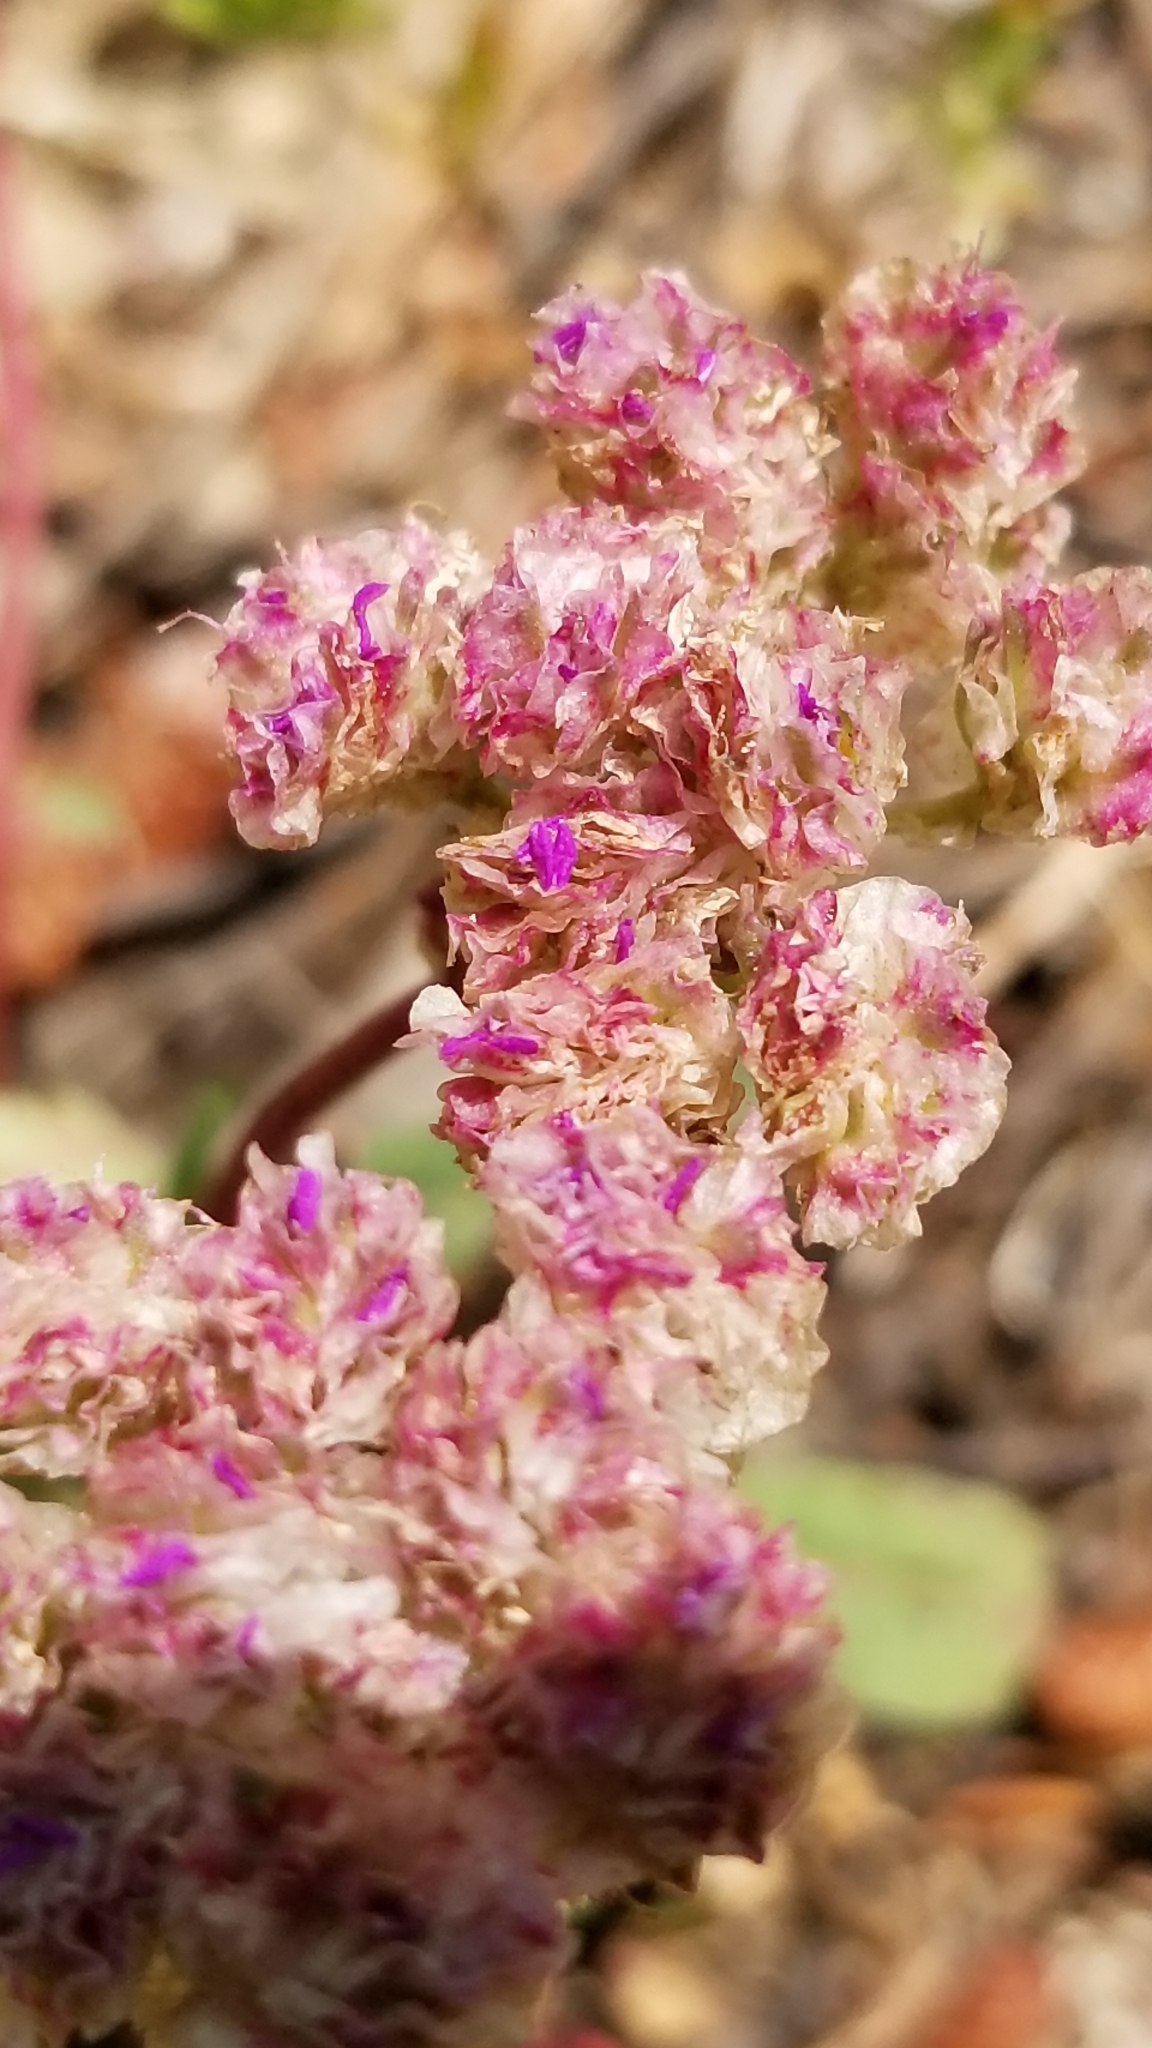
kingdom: Plantae
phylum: Tracheophyta
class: Magnoliopsida
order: Caryophyllales
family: Montiaceae
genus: Calyptridium
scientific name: Calyptridium monospermum
